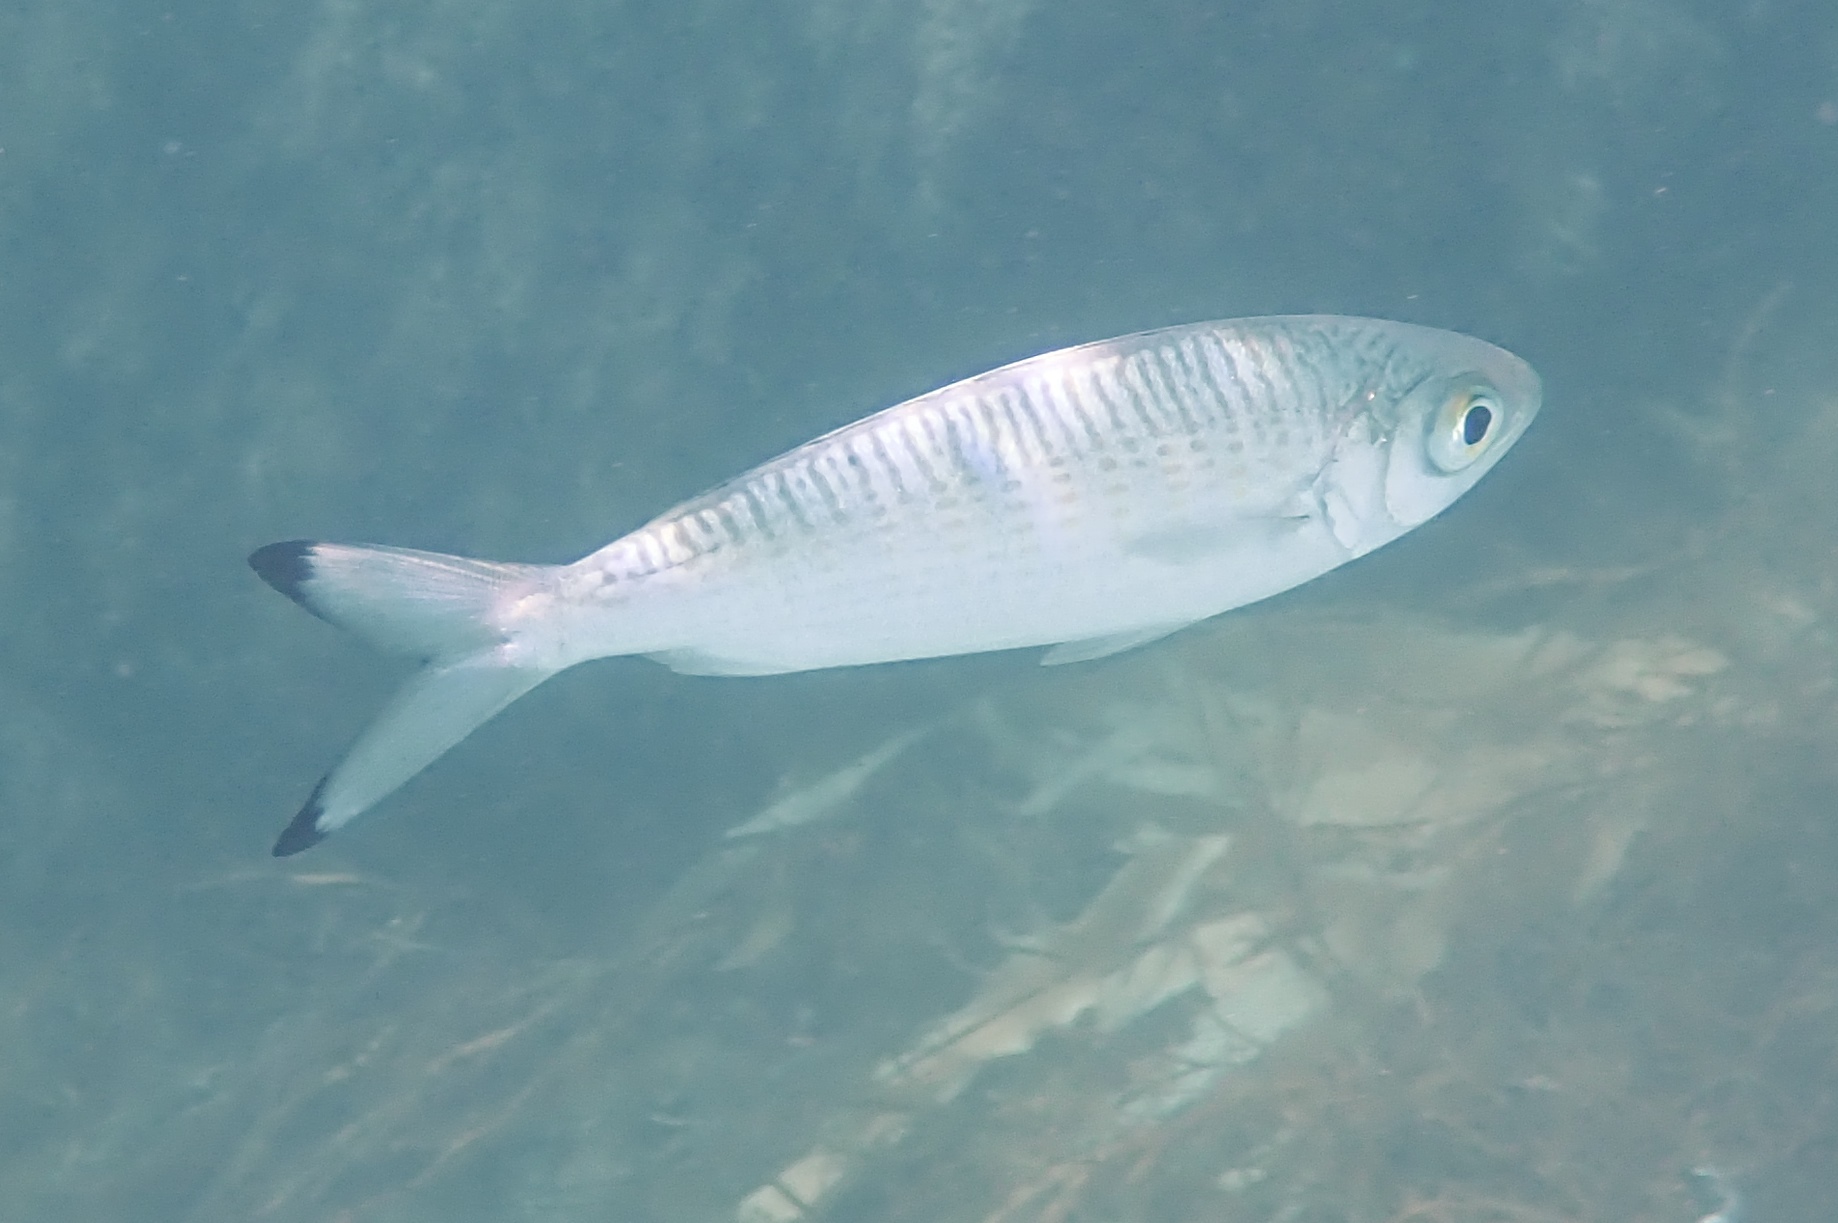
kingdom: Animalia
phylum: Chordata
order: Perciformes
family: Arripidae
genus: Arripis
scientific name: Arripis georgianus
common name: Australian herring
